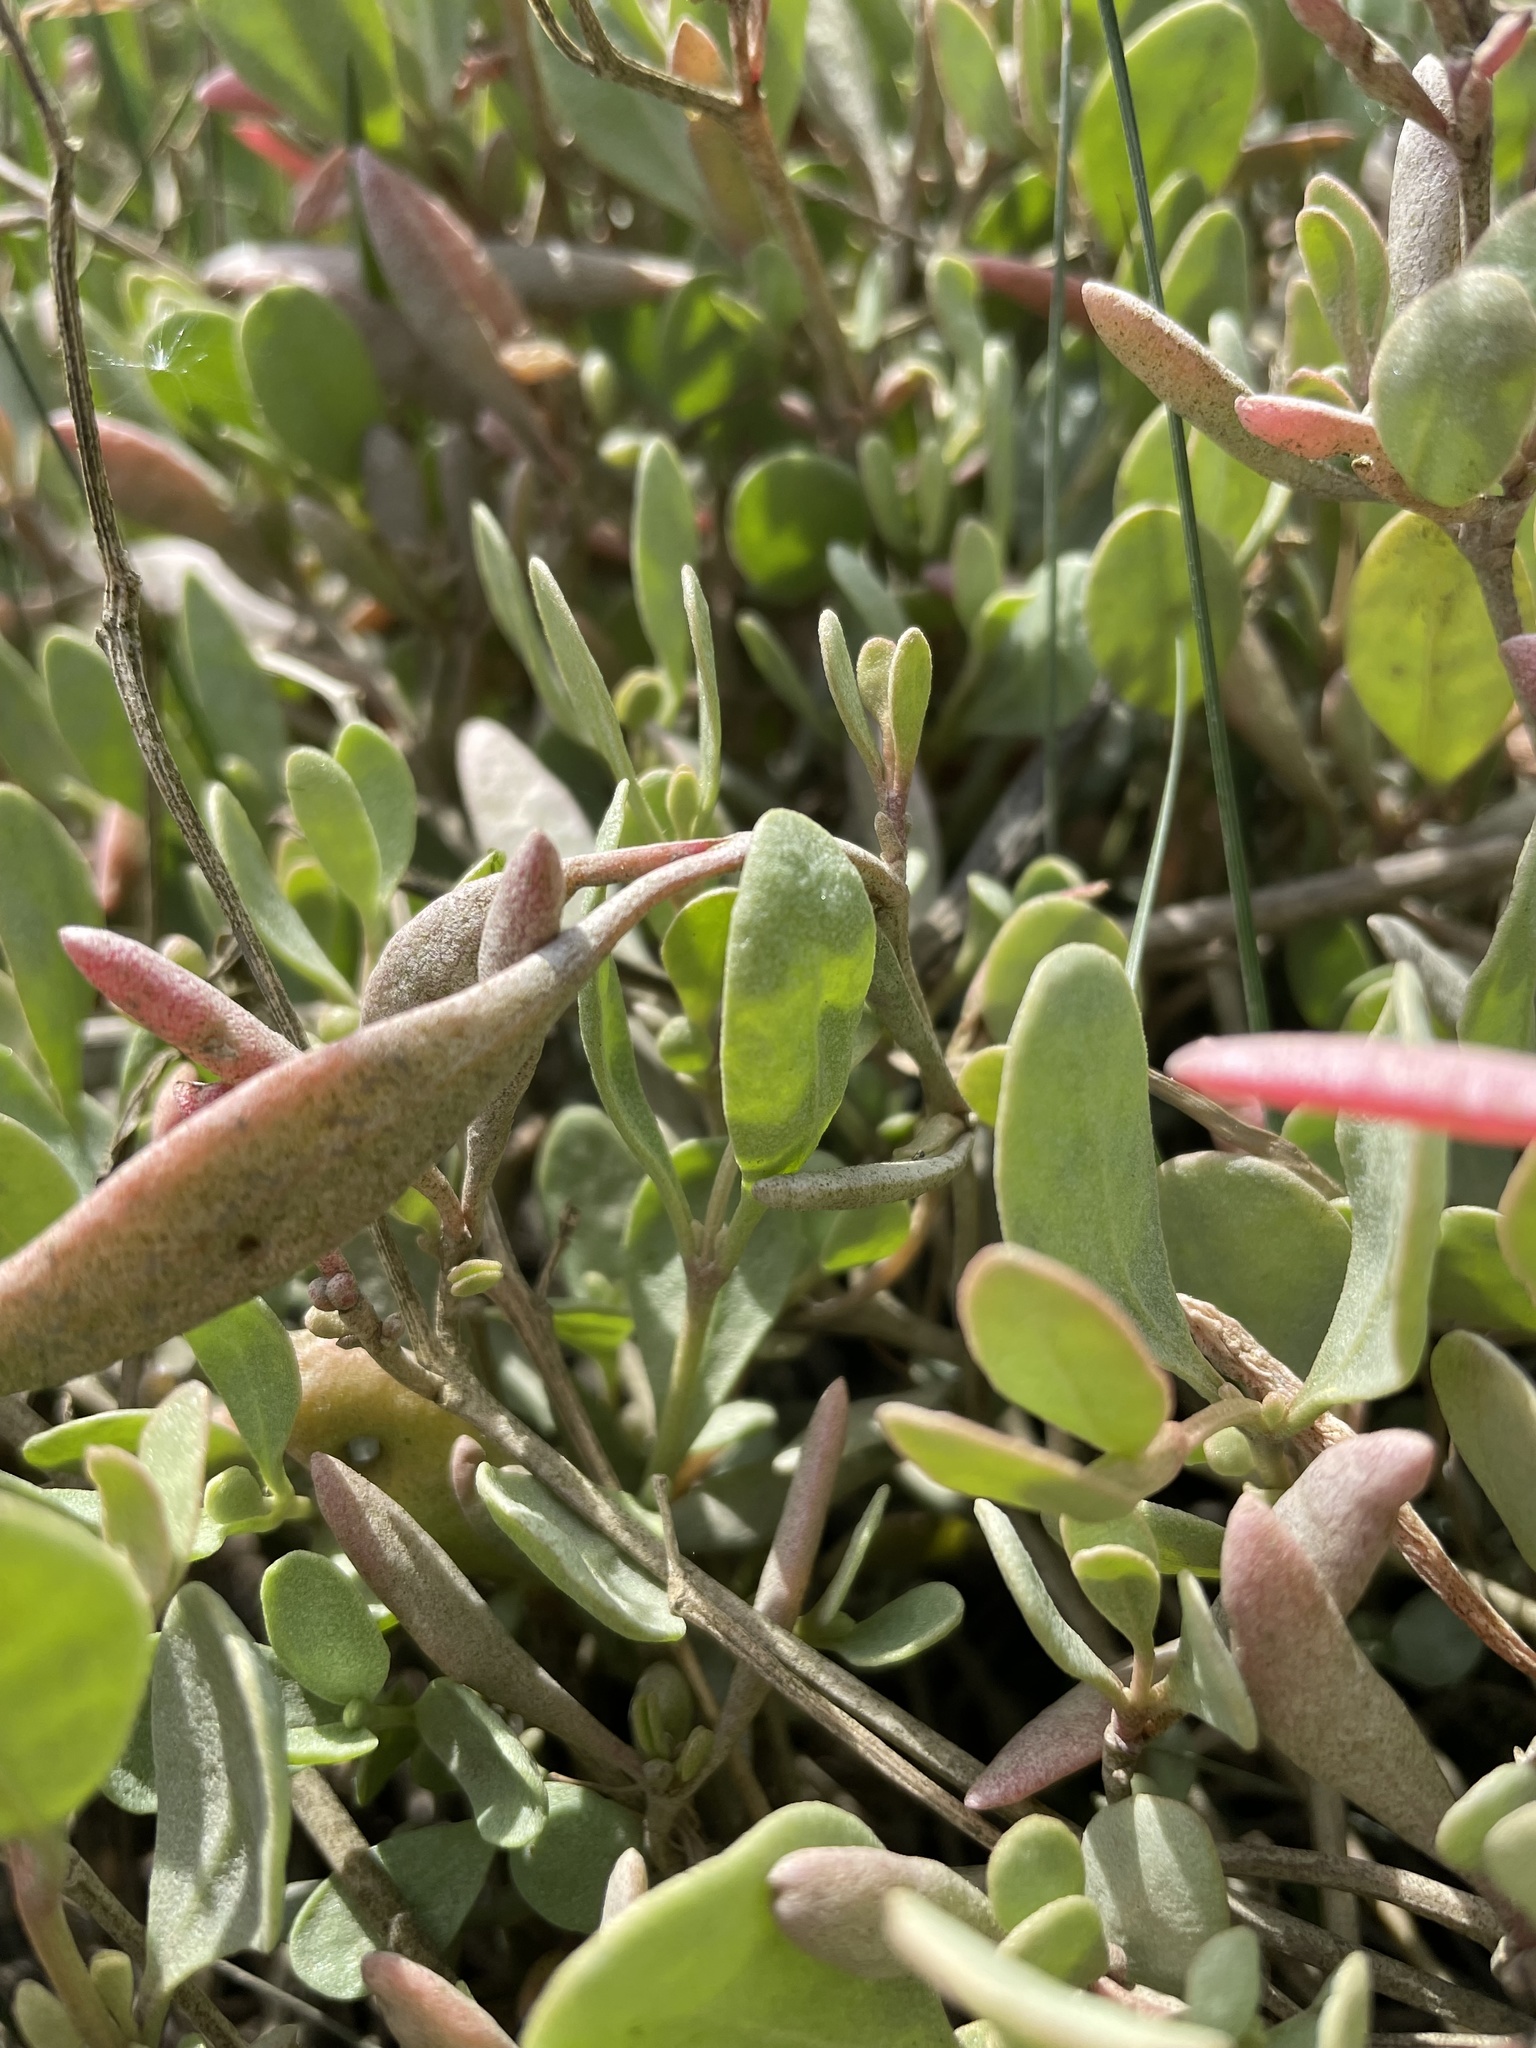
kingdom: Plantae
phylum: Tracheophyta
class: Magnoliopsida
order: Caryophyllales
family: Amaranthaceae
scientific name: Amaranthaceae
